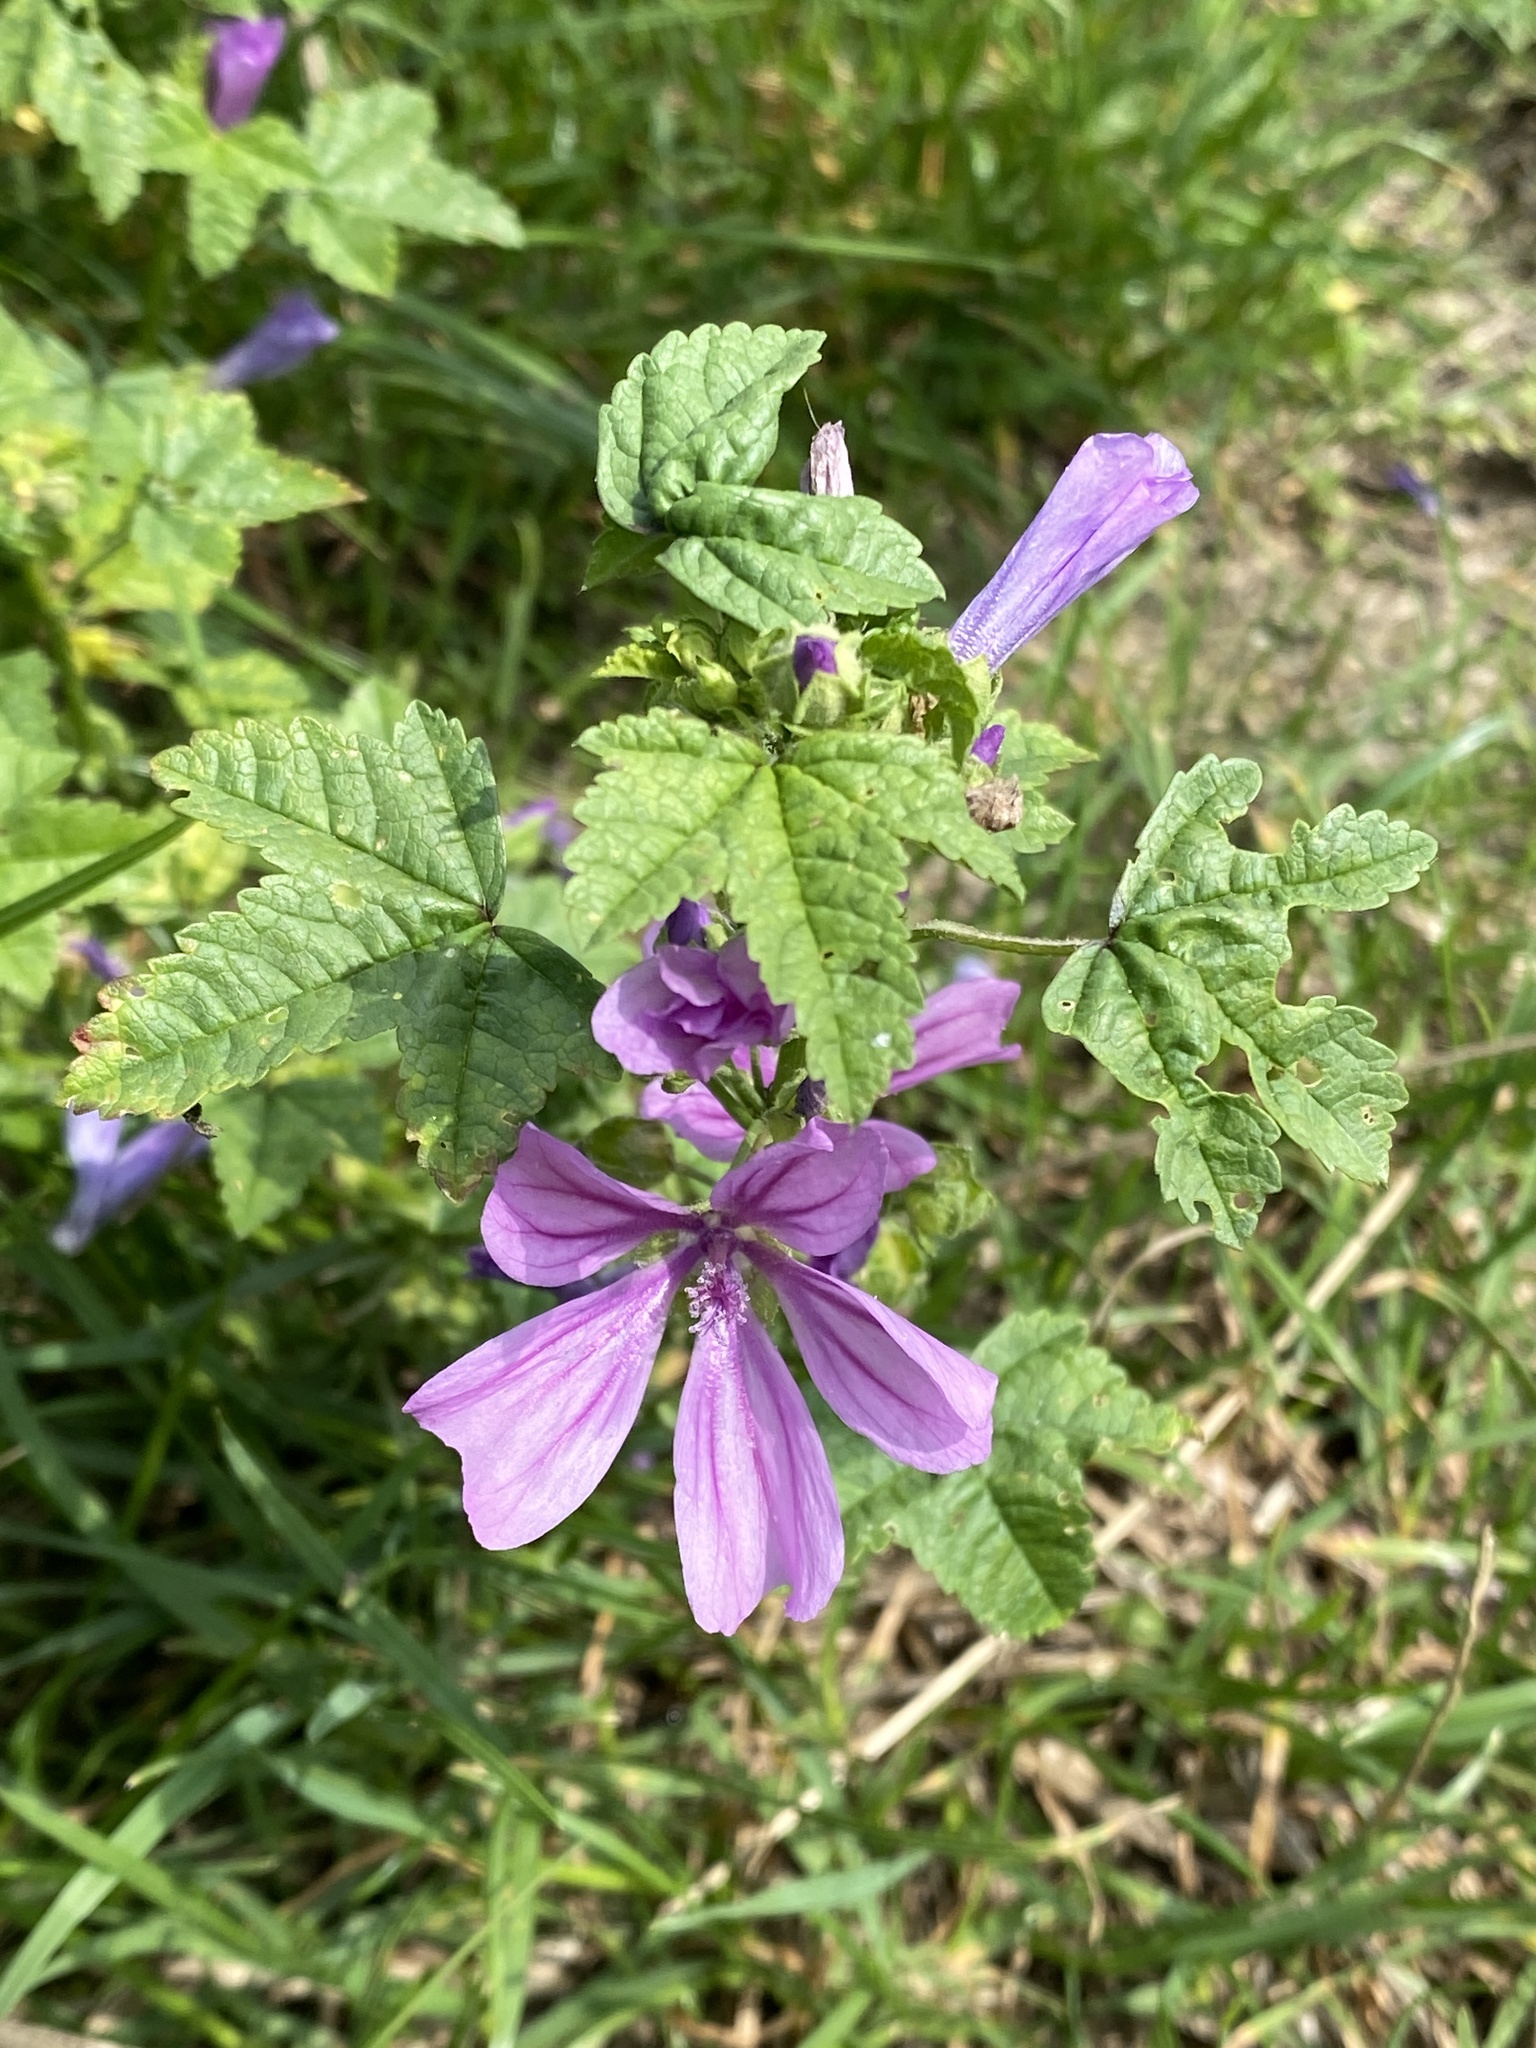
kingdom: Plantae
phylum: Tracheophyta
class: Magnoliopsida
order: Malvales
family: Malvaceae
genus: Malva
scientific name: Malva sylvestris
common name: Common mallow
